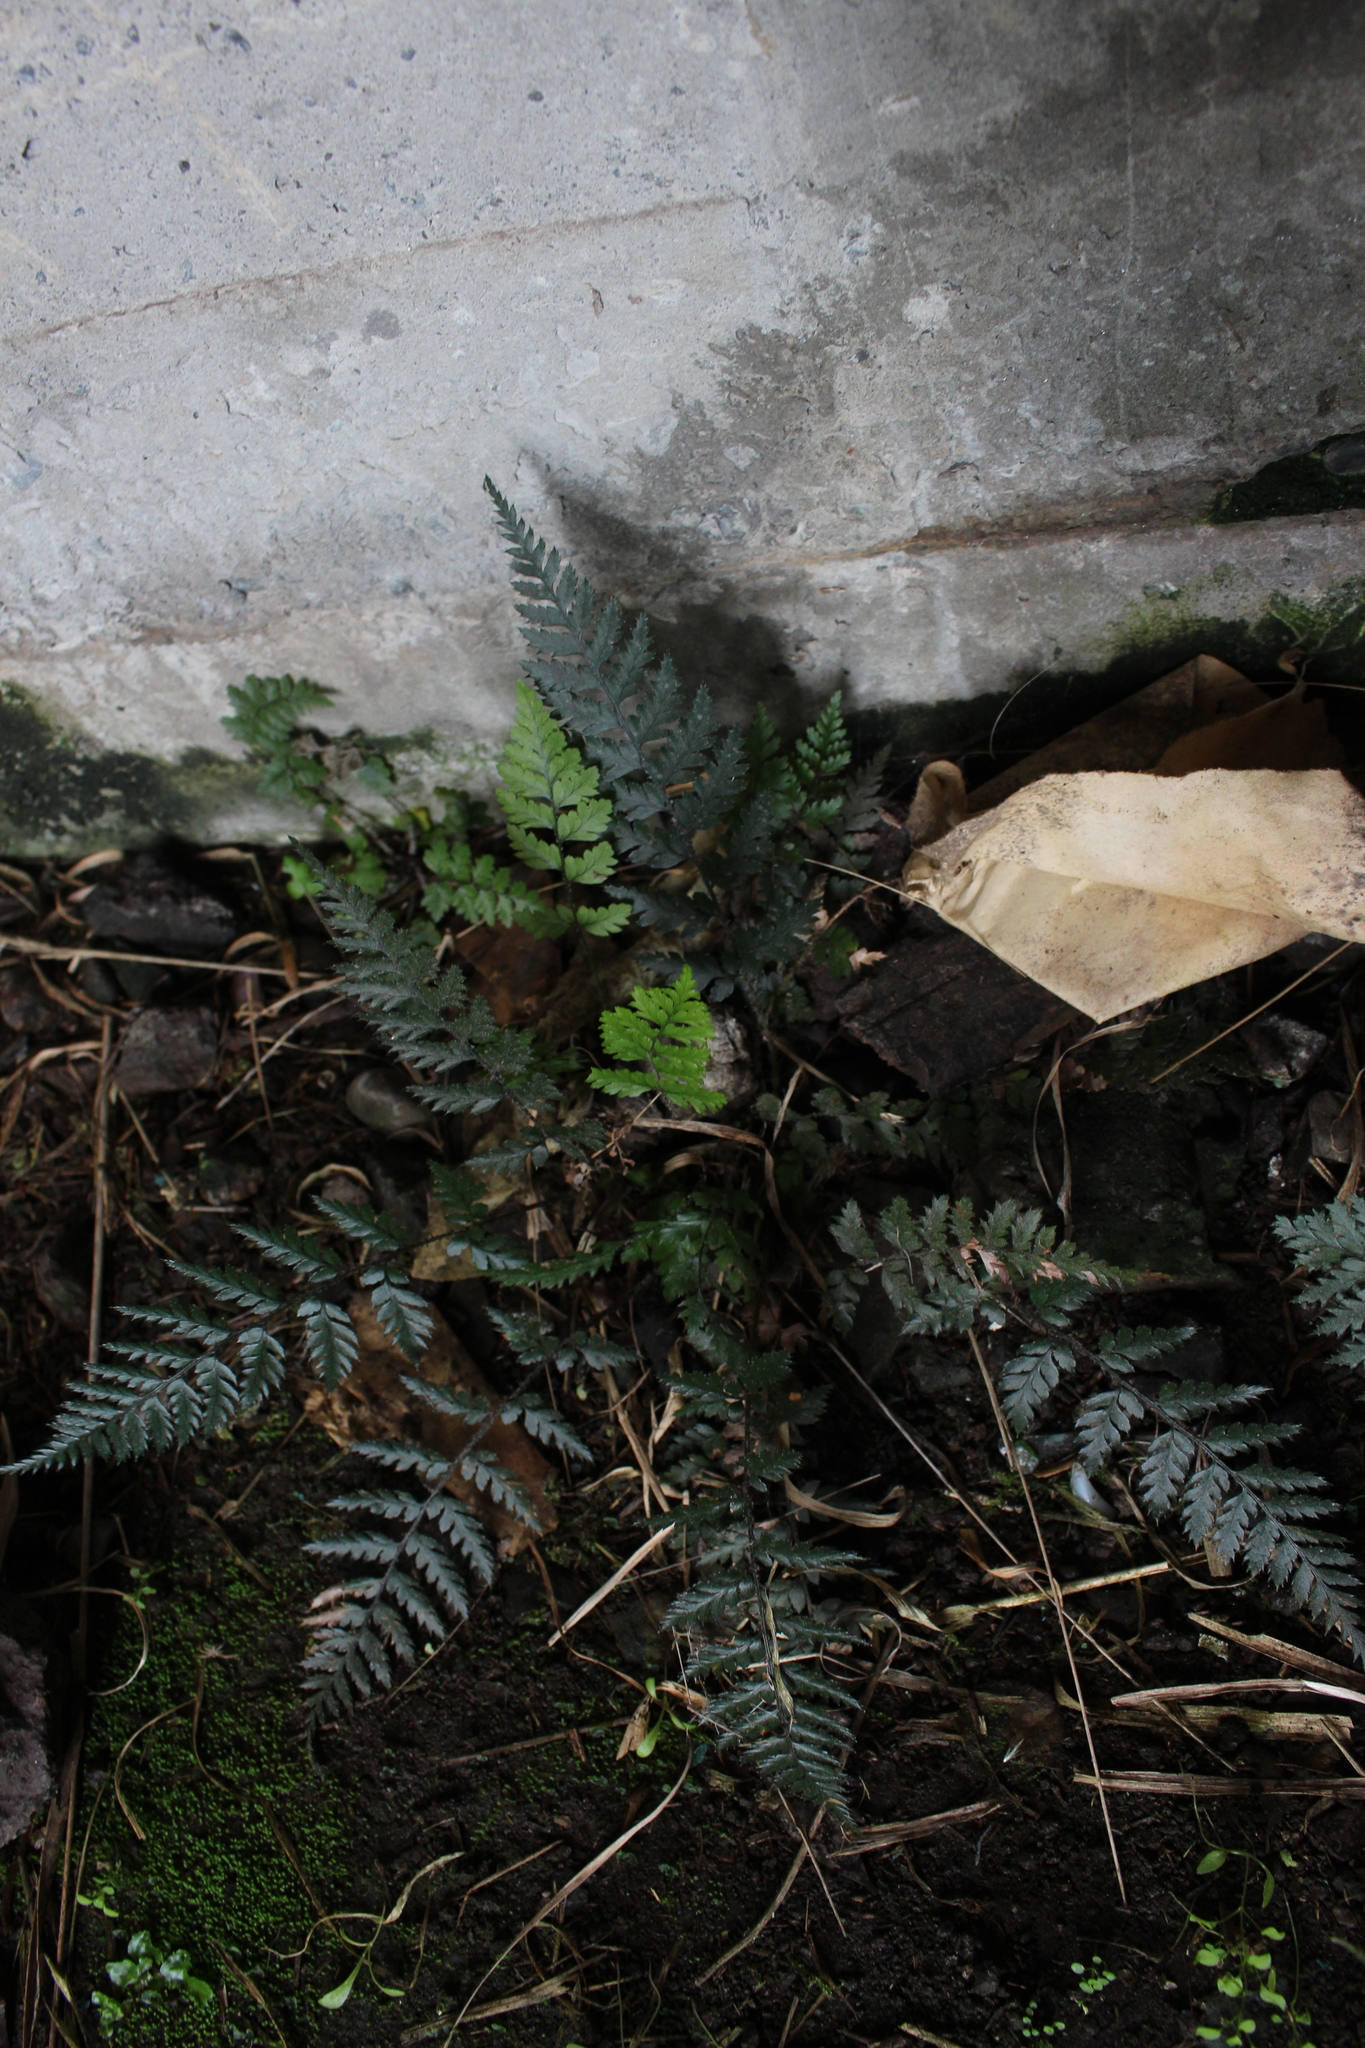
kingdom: Plantae
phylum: Tracheophyta
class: Polypodiopsida
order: Polypodiales
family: Dryopteridaceae
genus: Polystichum
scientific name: Polystichum oculatum
